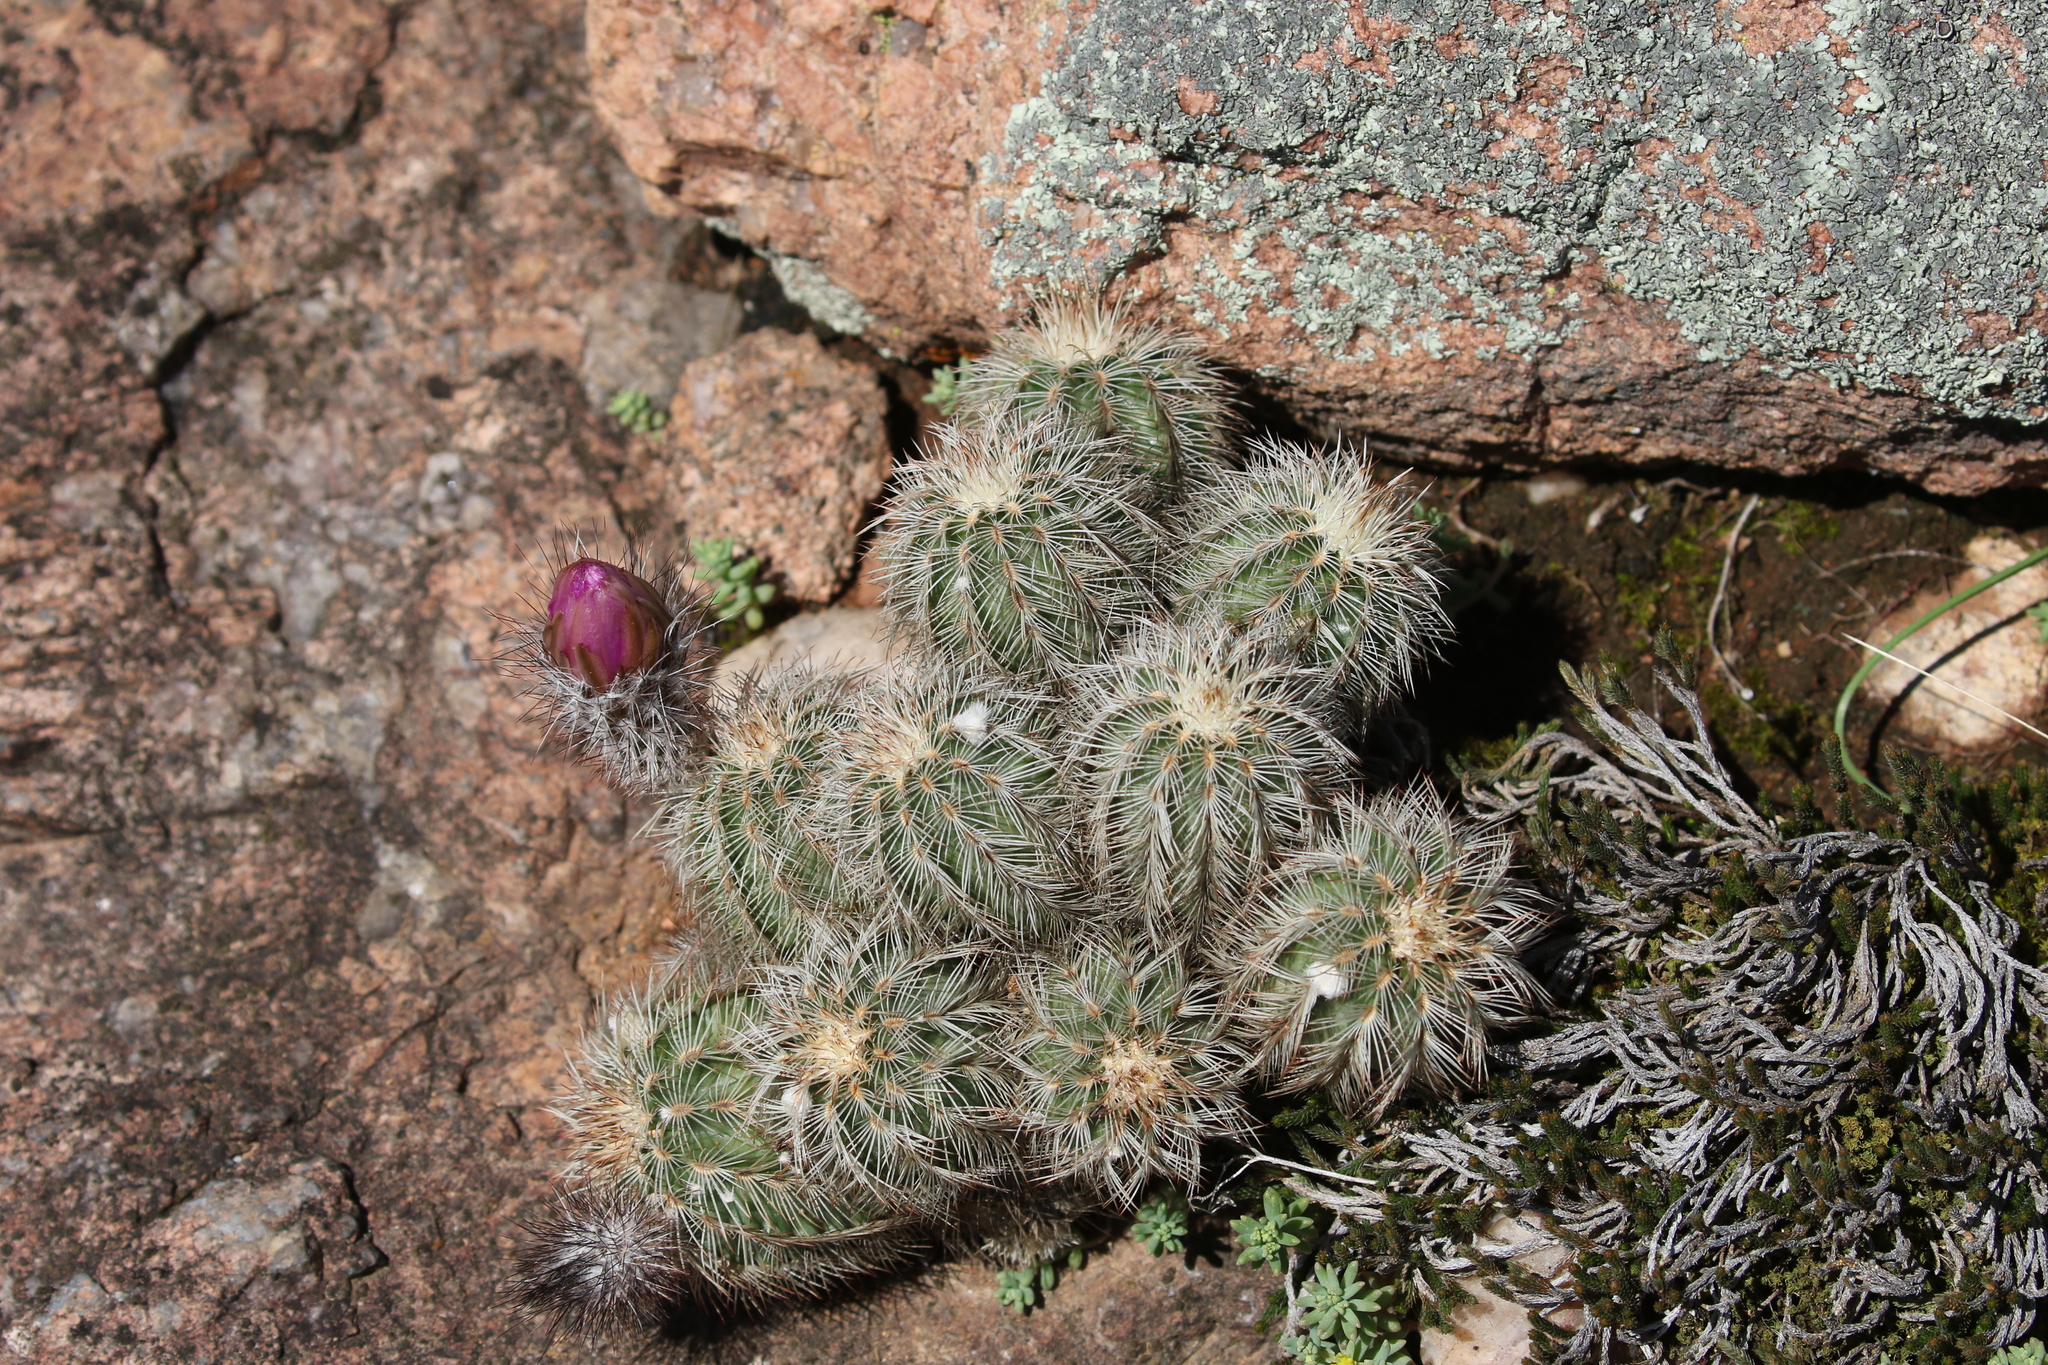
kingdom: Plantae
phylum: Tracheophyta
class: Magnoliopsida
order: Caryophyllales
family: Cactaceae
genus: Echinocereus
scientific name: Echinocereus reichenbachii
